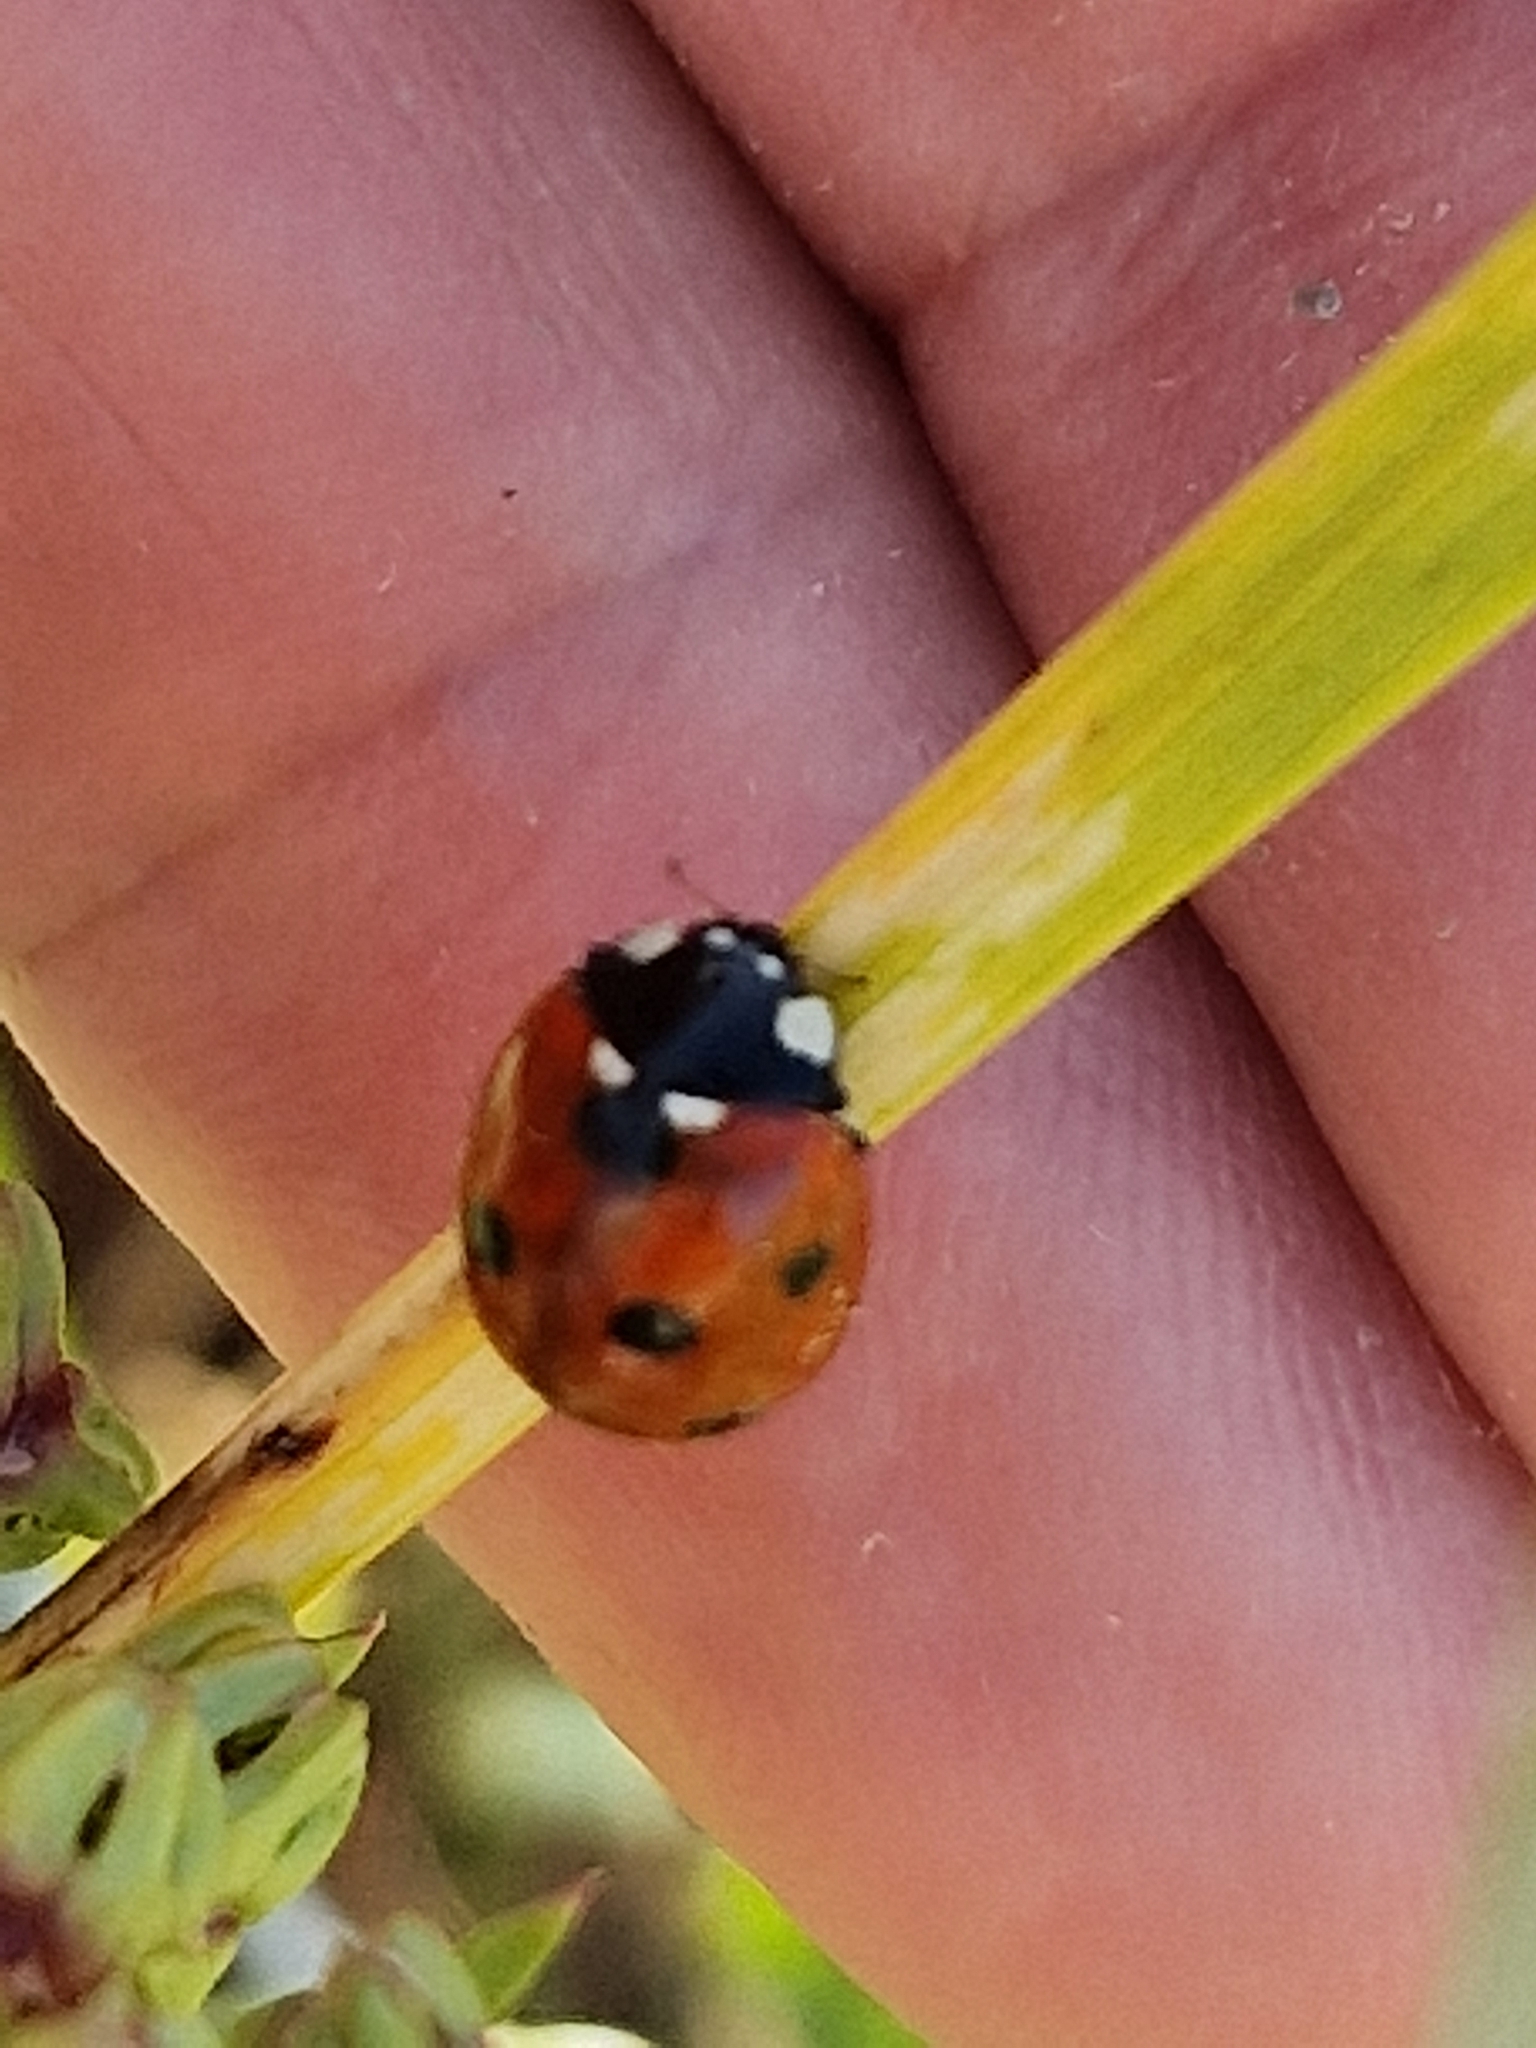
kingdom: Animalia
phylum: Arthropoda
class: Insecta
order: Coleoptera
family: Coccinellidae
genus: Coccinella
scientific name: Coccinella septempunctata
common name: Sevenspotted lady beetle
